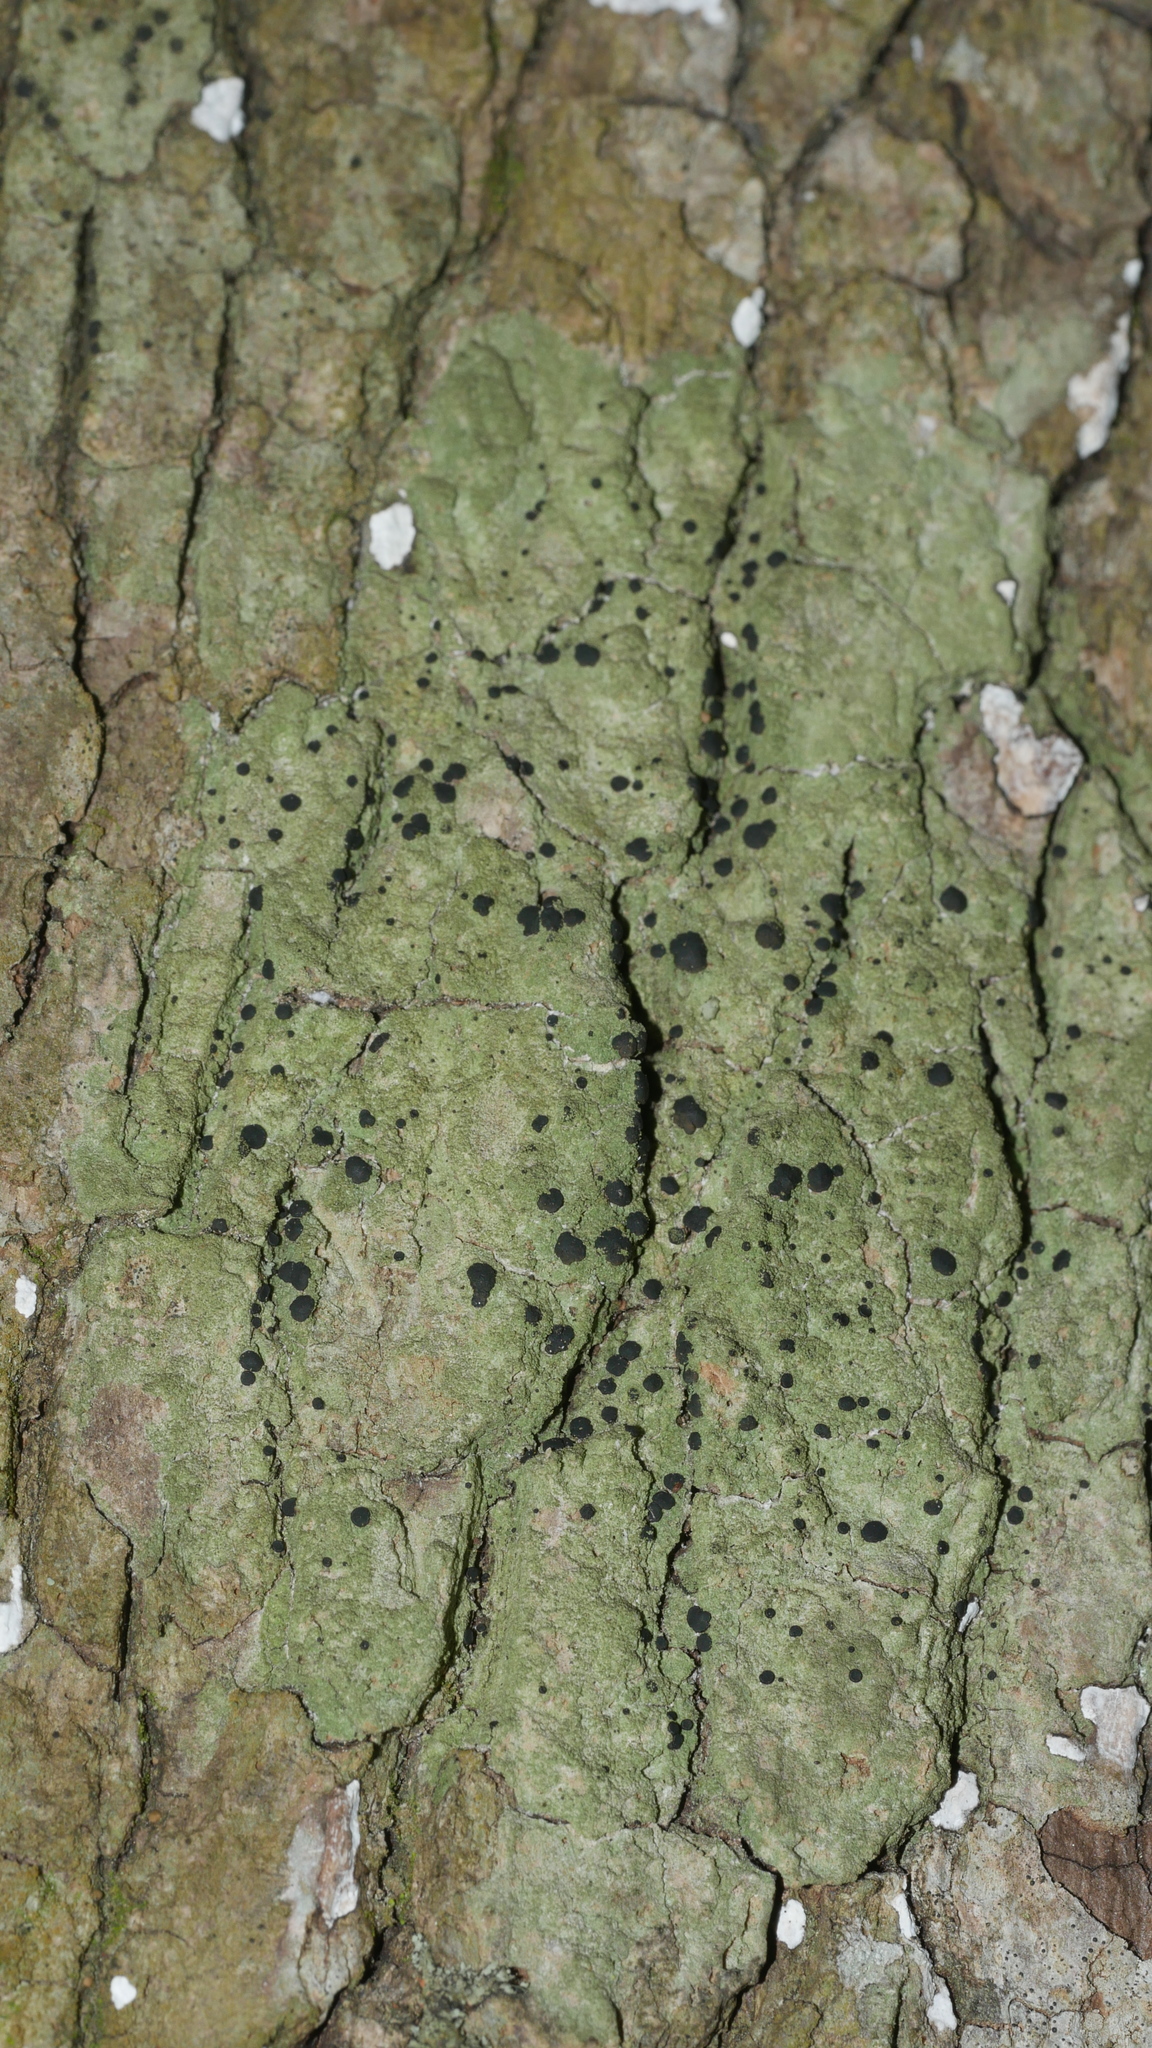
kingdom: Fungi
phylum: Ascomycota
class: Lecanoromycetes
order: Lecanorales
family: Ramalinaceae
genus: Bacidia
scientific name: Bacidia schweinitzii
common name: Surprise lichen
